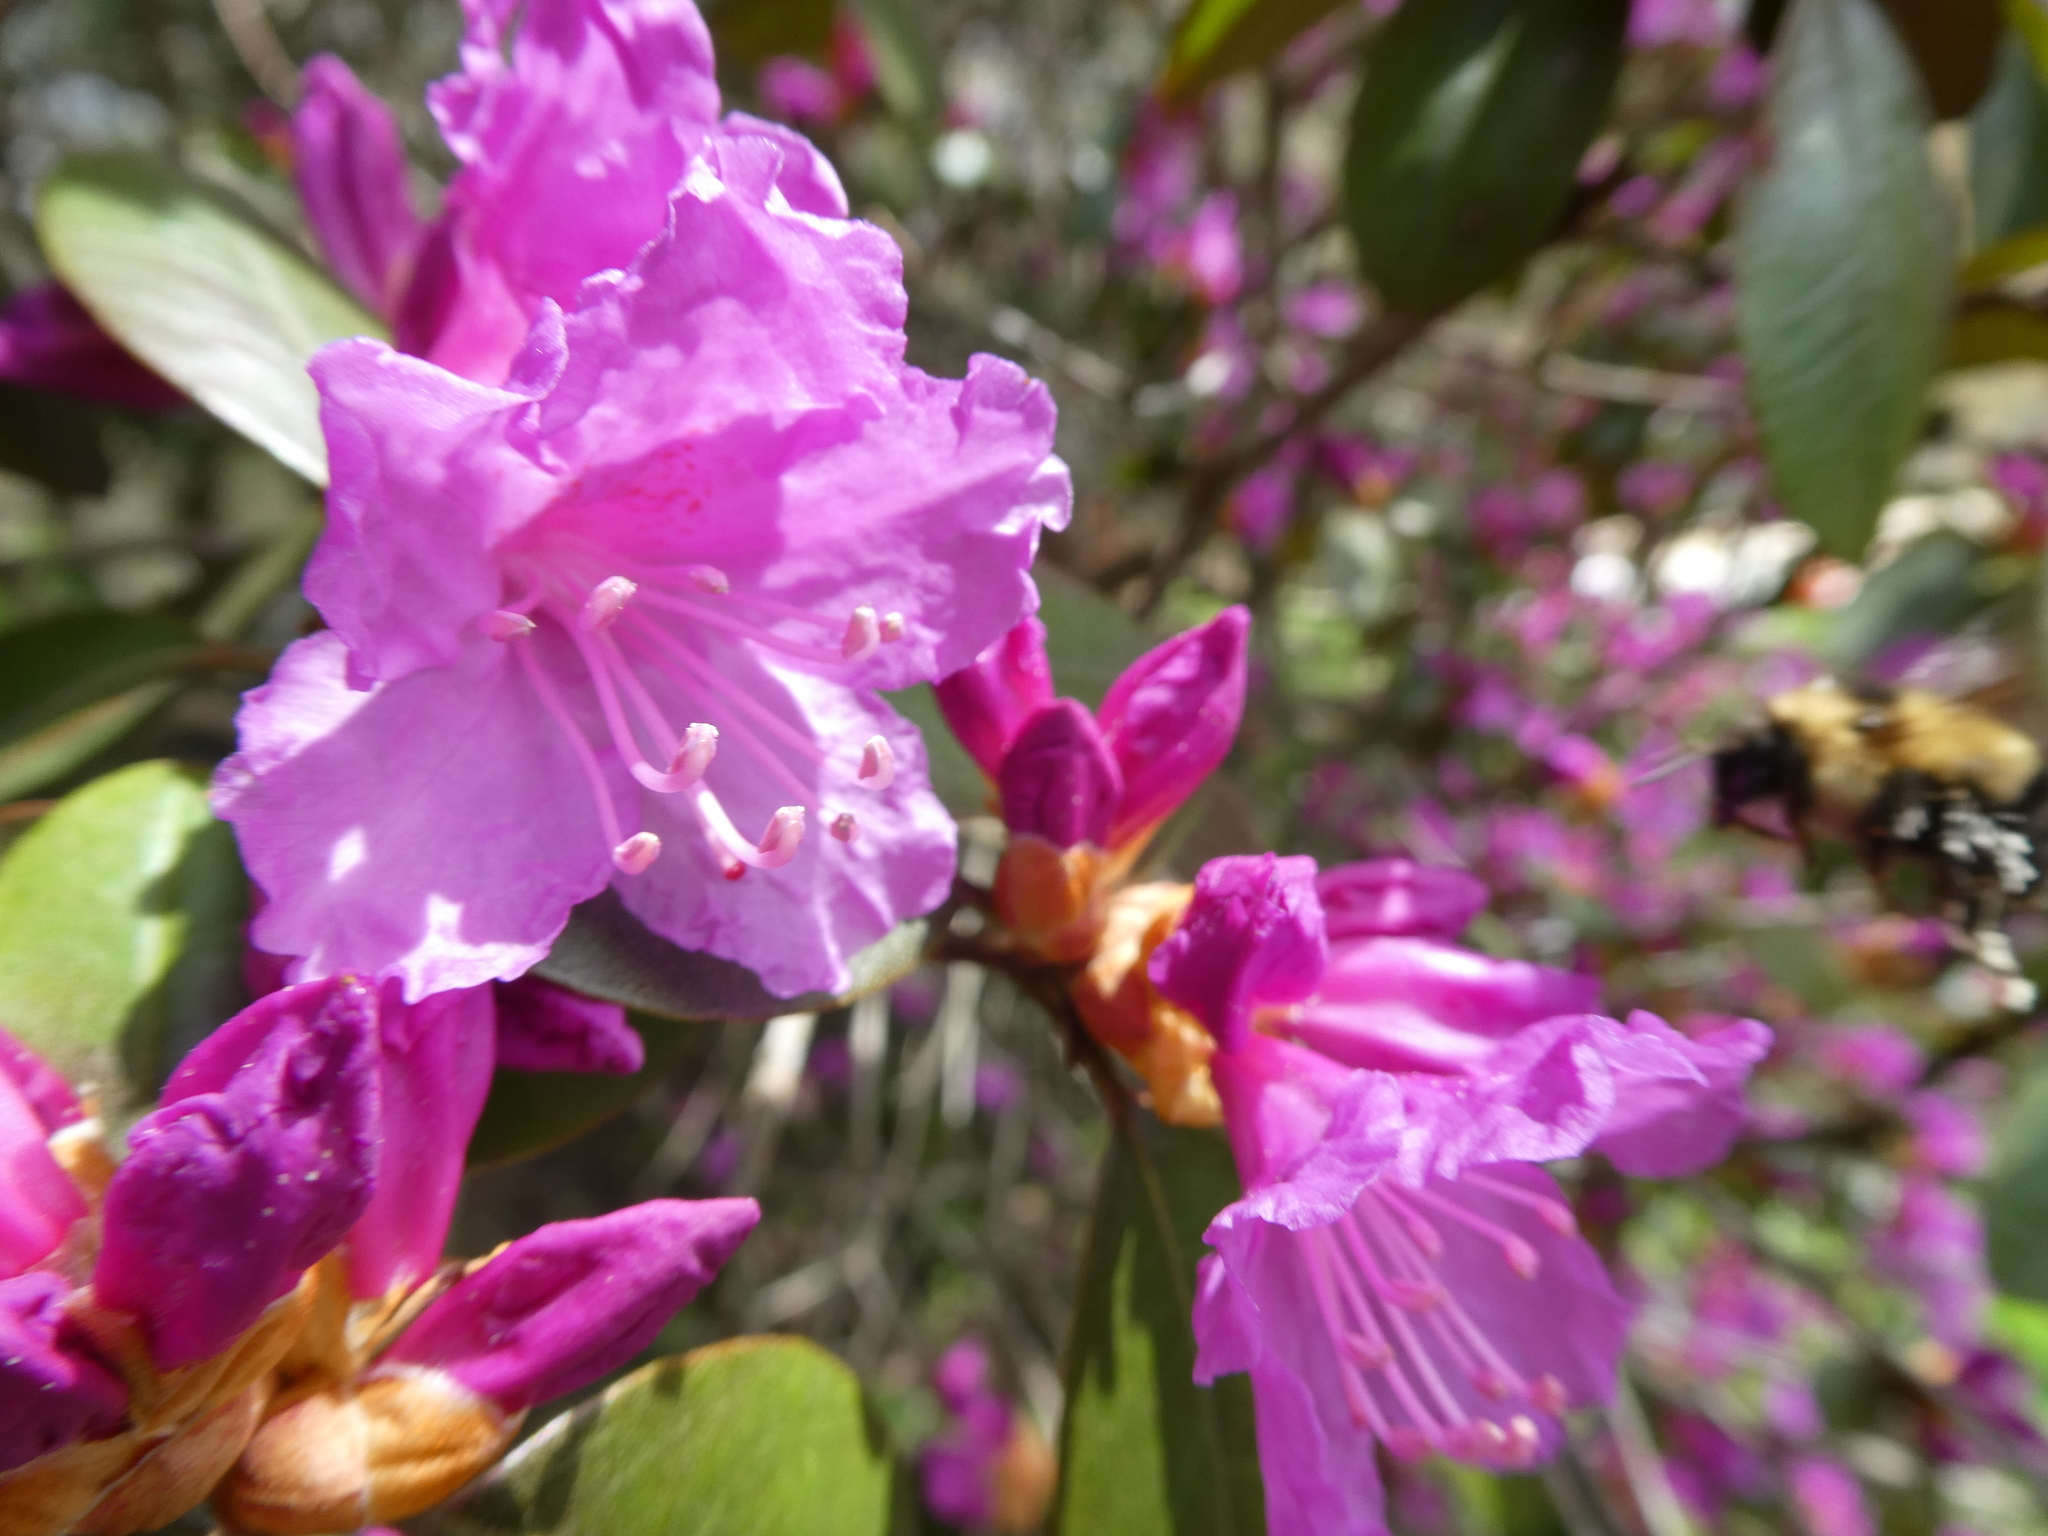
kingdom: Animalia
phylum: Arthropoda
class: Insecta
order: Hymenoptera
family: Apidae
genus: Bombus
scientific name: Bombus sandersoni
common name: Sanderson bumble bee
